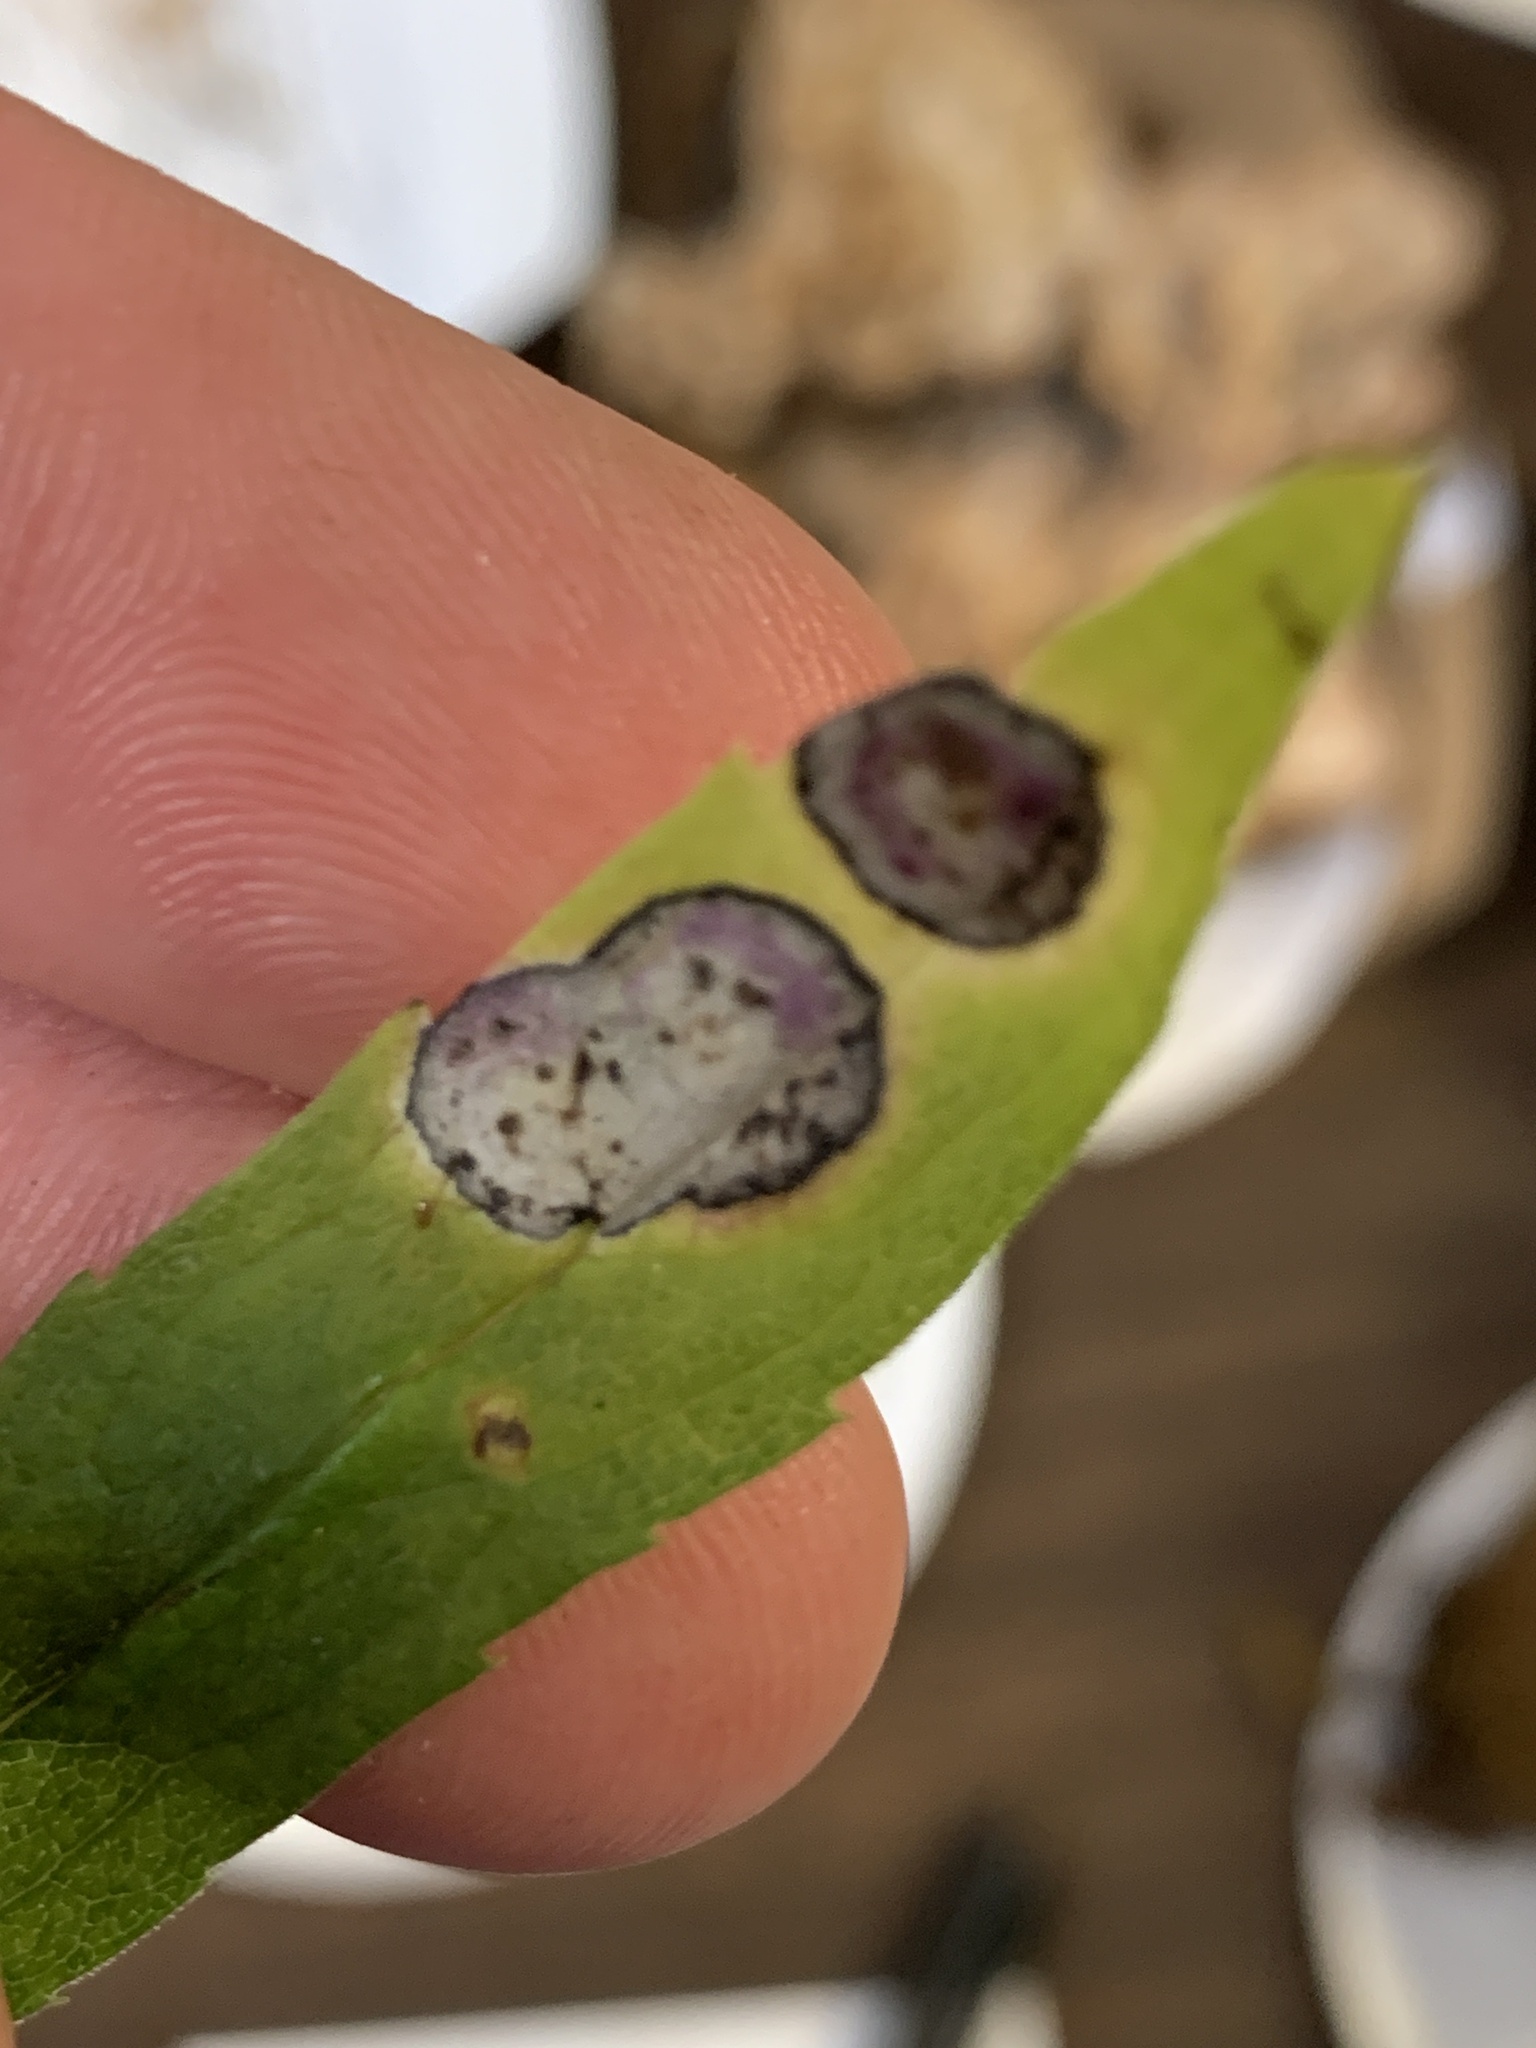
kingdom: Fungi
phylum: Ascomycota
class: Dothideomycetes
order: Botryosphaeriales
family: Botryosphaeriaceae
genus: Botryosphaeria
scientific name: Botryosphaeria dothidea
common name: Asteromyia gall midge fungus
